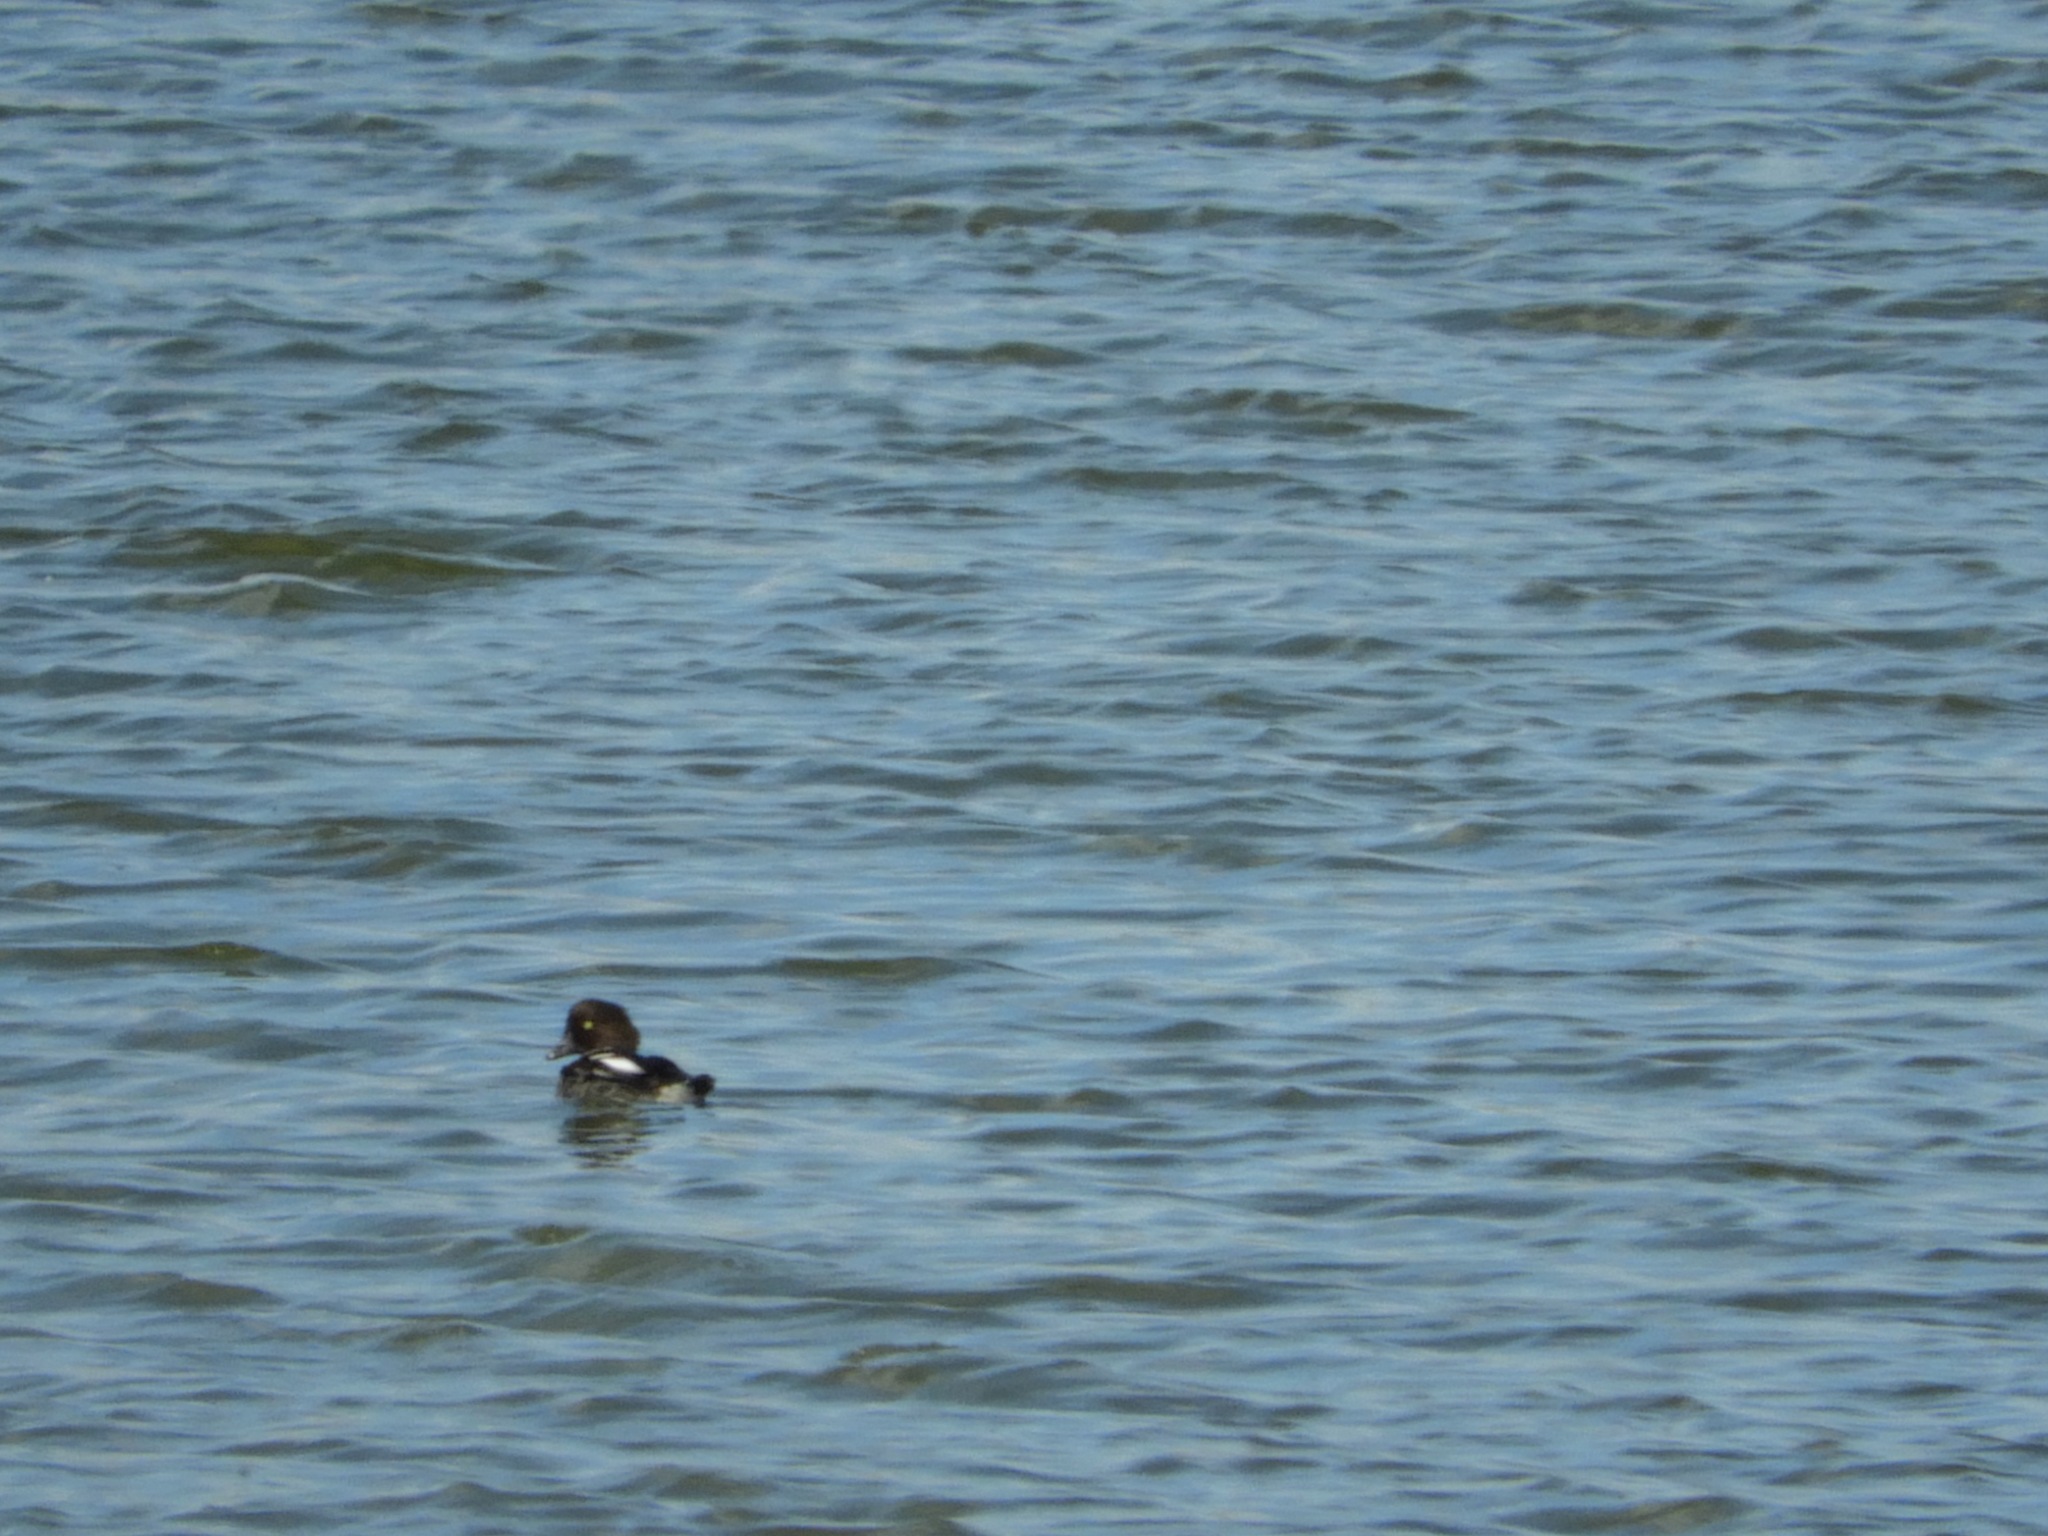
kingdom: Animalia
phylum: Chordata
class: Aves
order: Anseriformes
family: Anatidae
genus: Bucephala
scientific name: Bucephala clangula
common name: Common goldeneye
